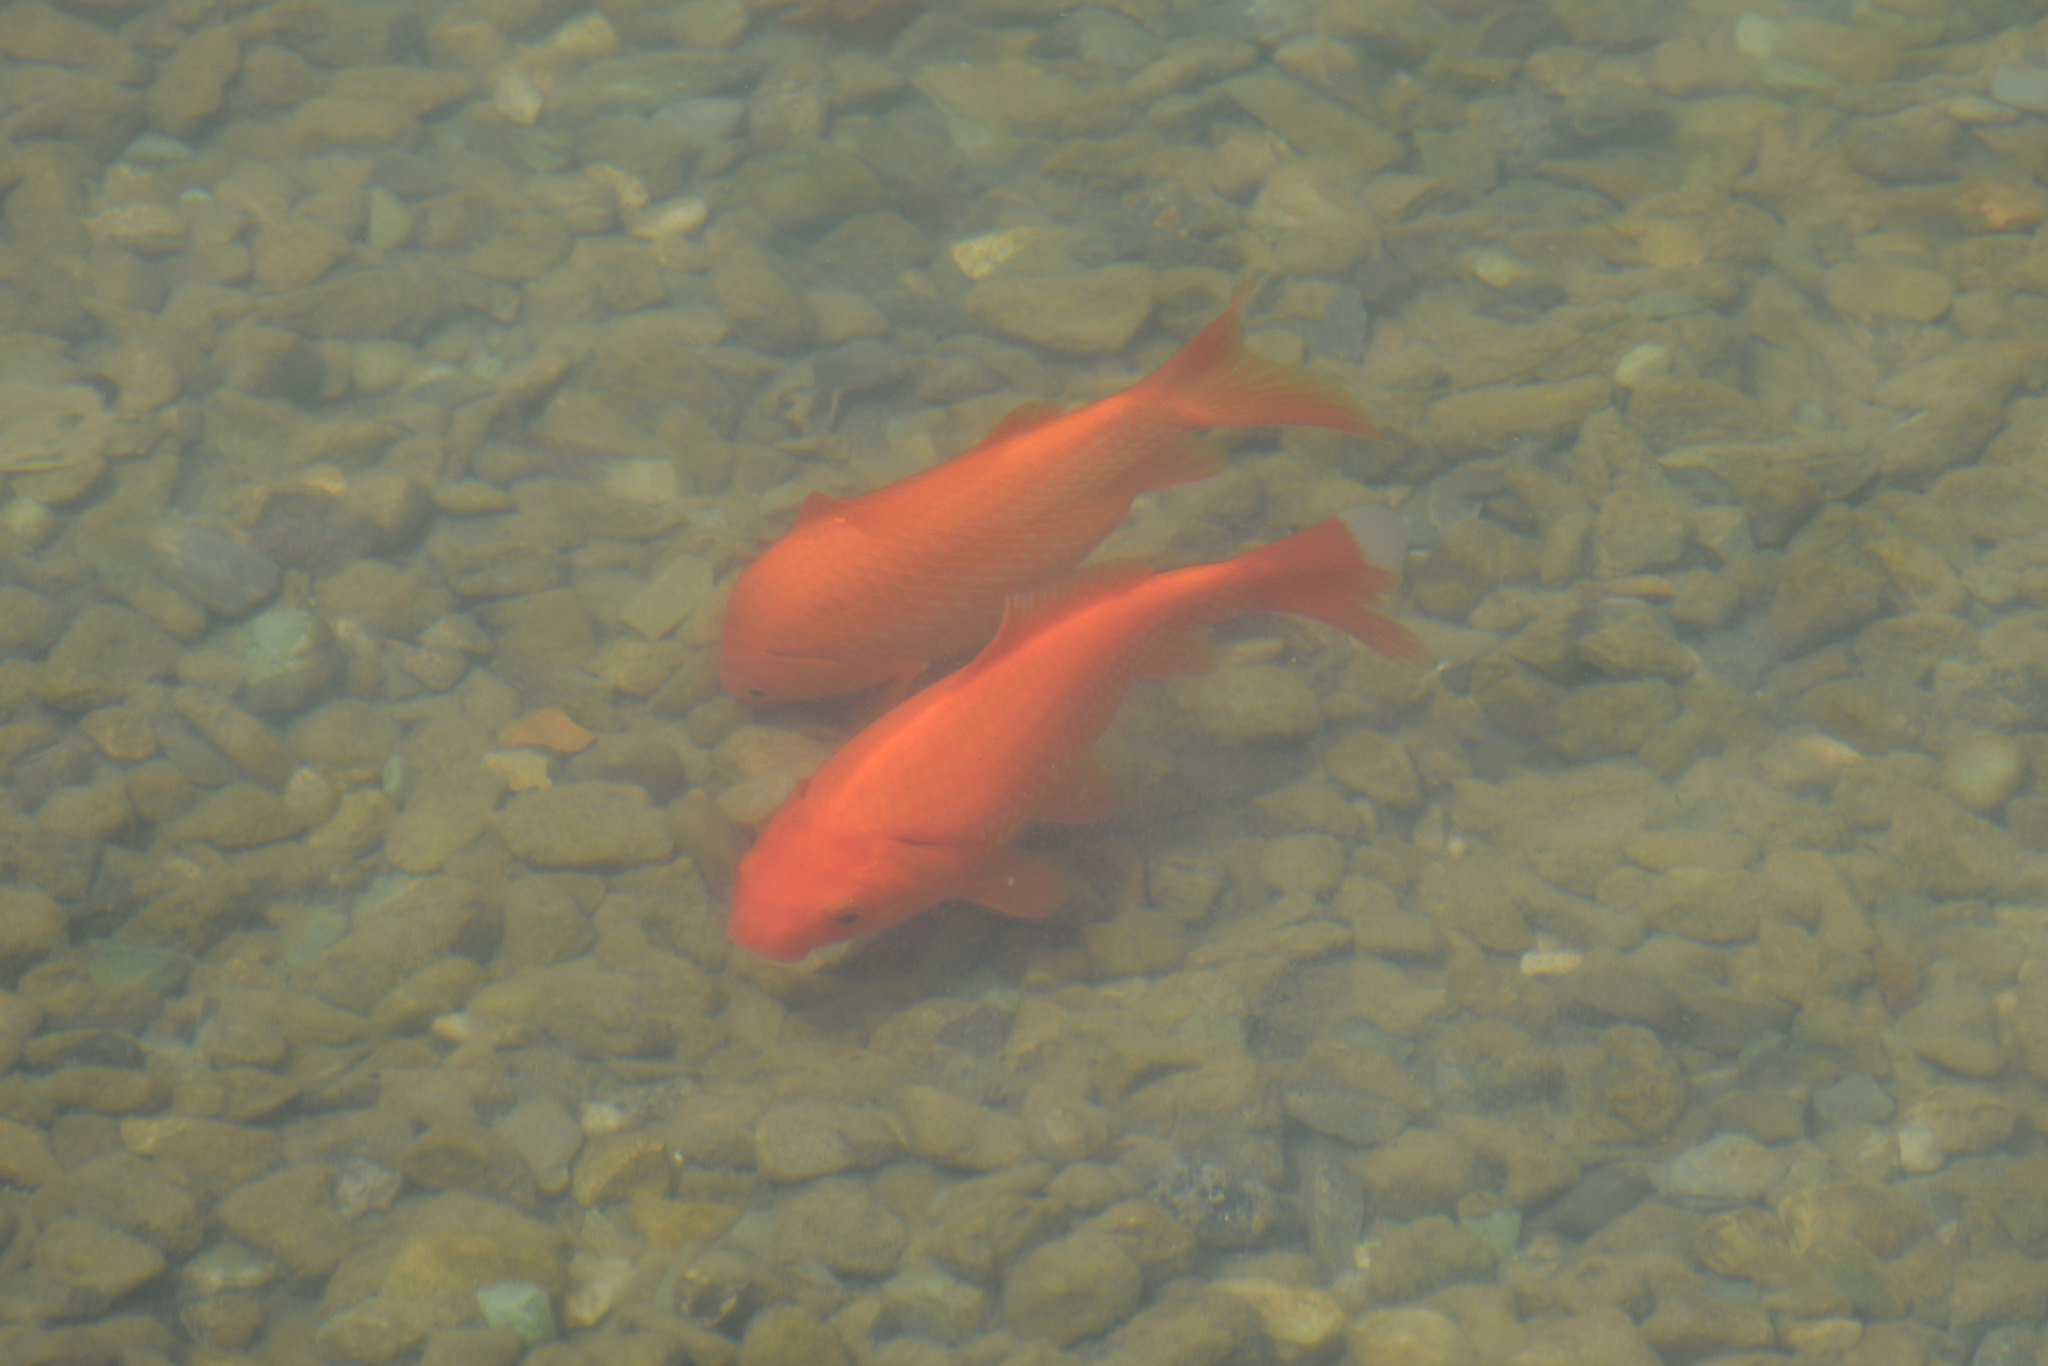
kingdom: Animalia
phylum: Chordata
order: Cypriniformes
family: Cyprinidae
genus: Carassius
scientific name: Carassius auratus
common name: Goldfish
